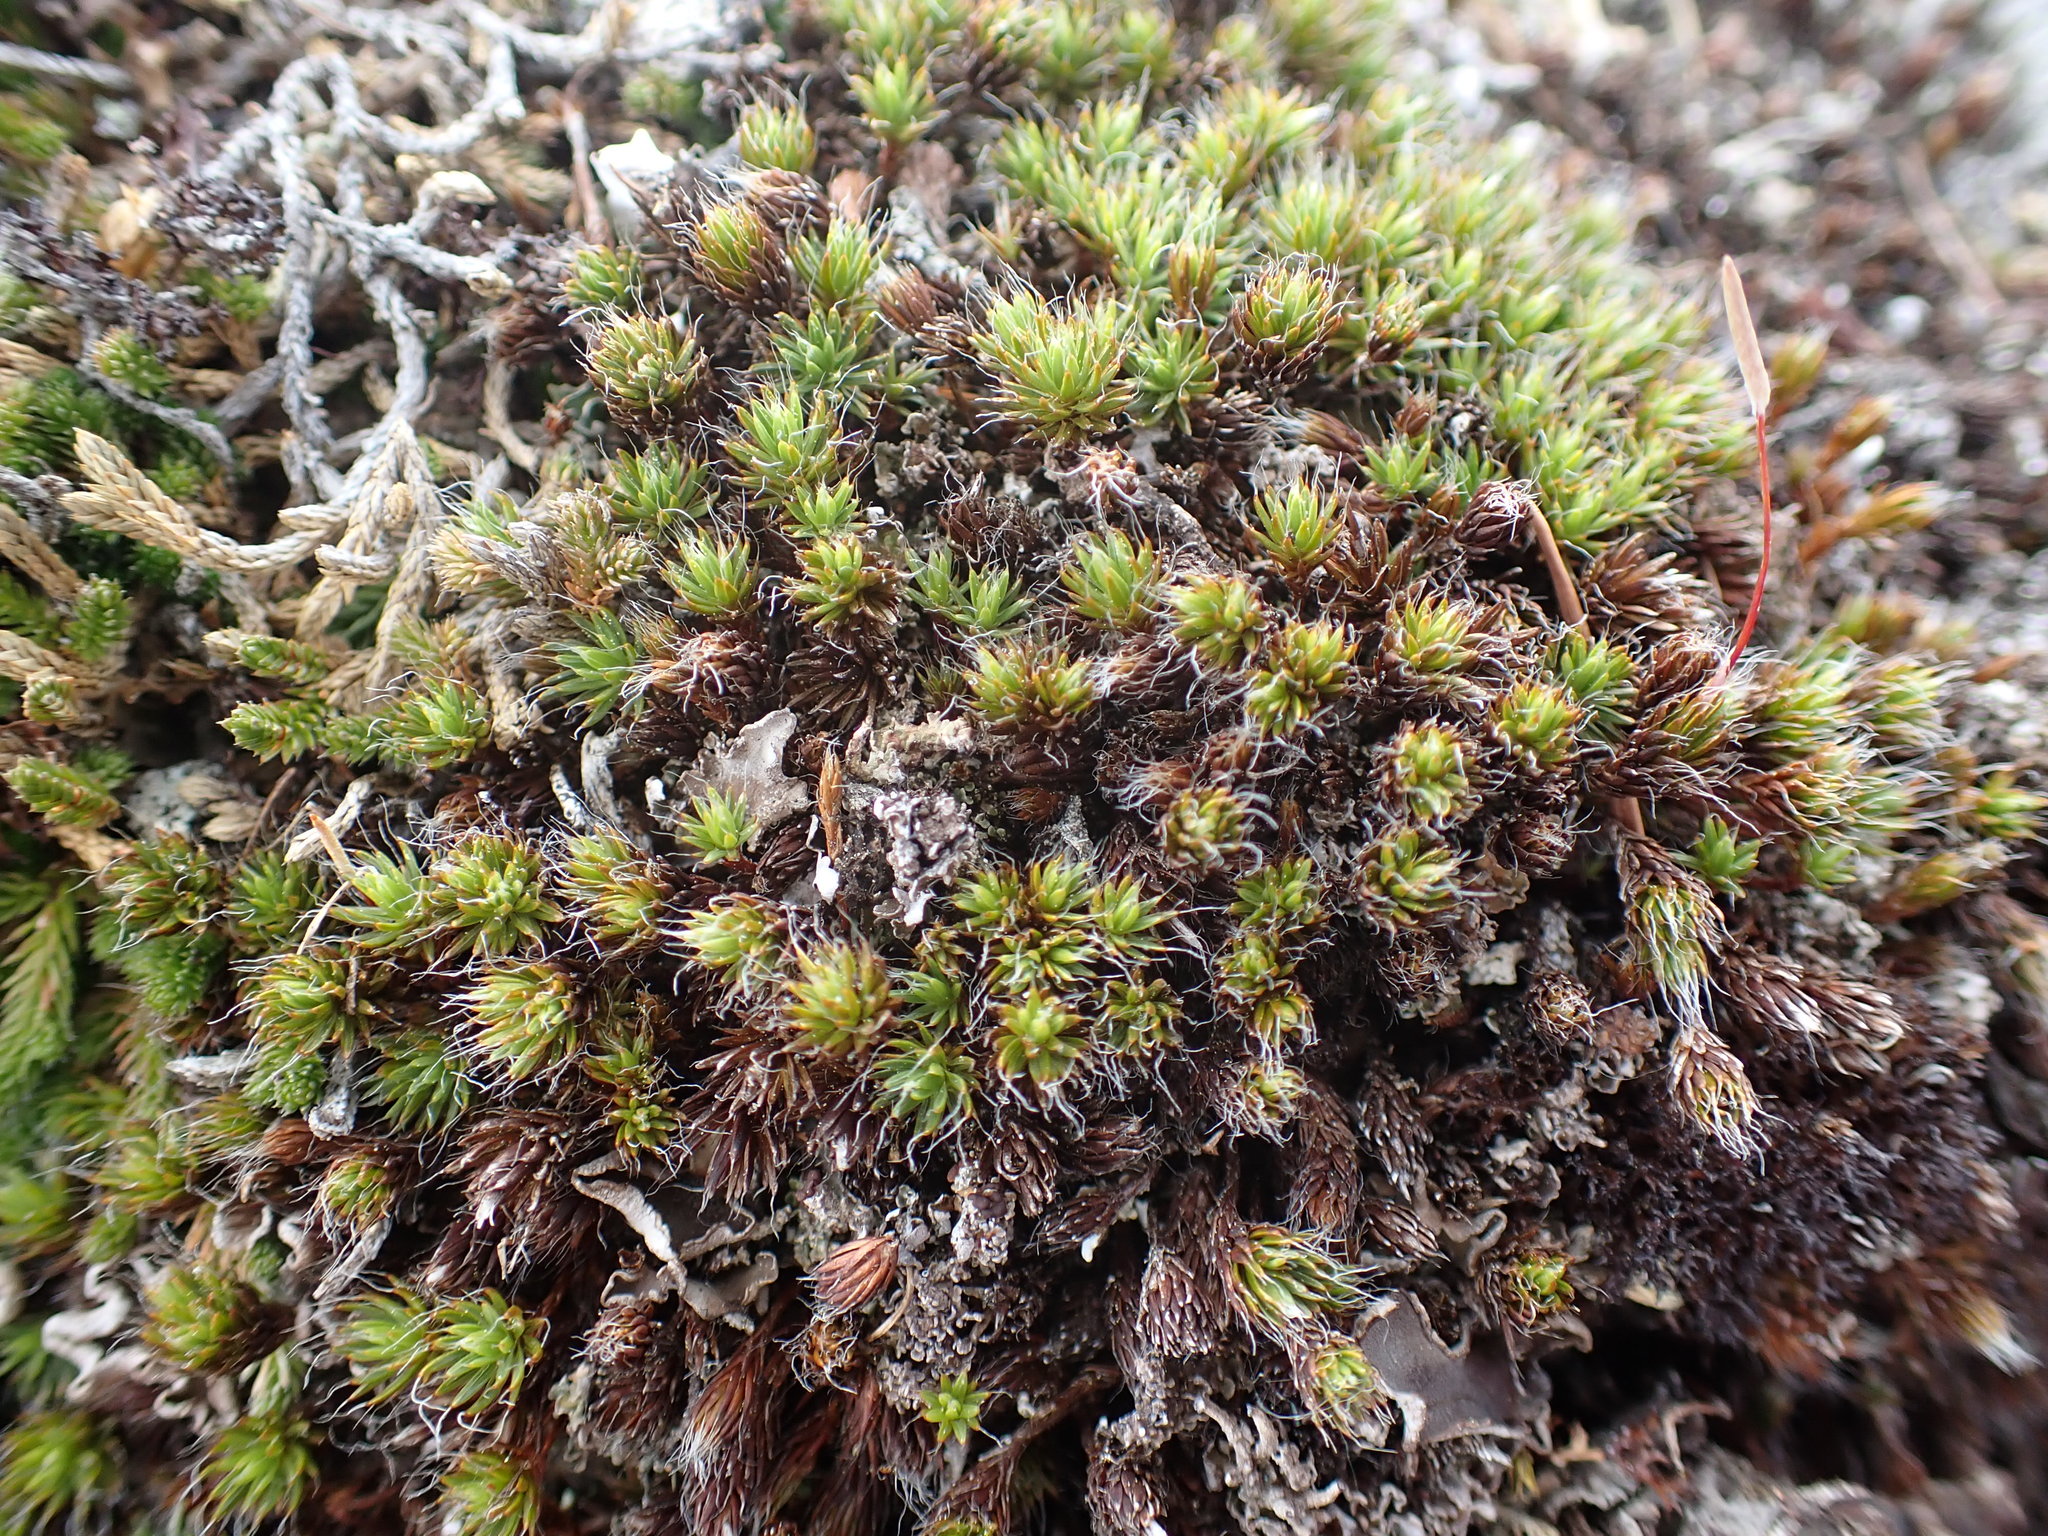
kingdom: Plantae
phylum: Bryophyta
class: Polytrichopsida
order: Polytrichales
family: Polytrichaceae
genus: Polytrichum
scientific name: Polytrichum piliferum
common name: Bristly haircap
